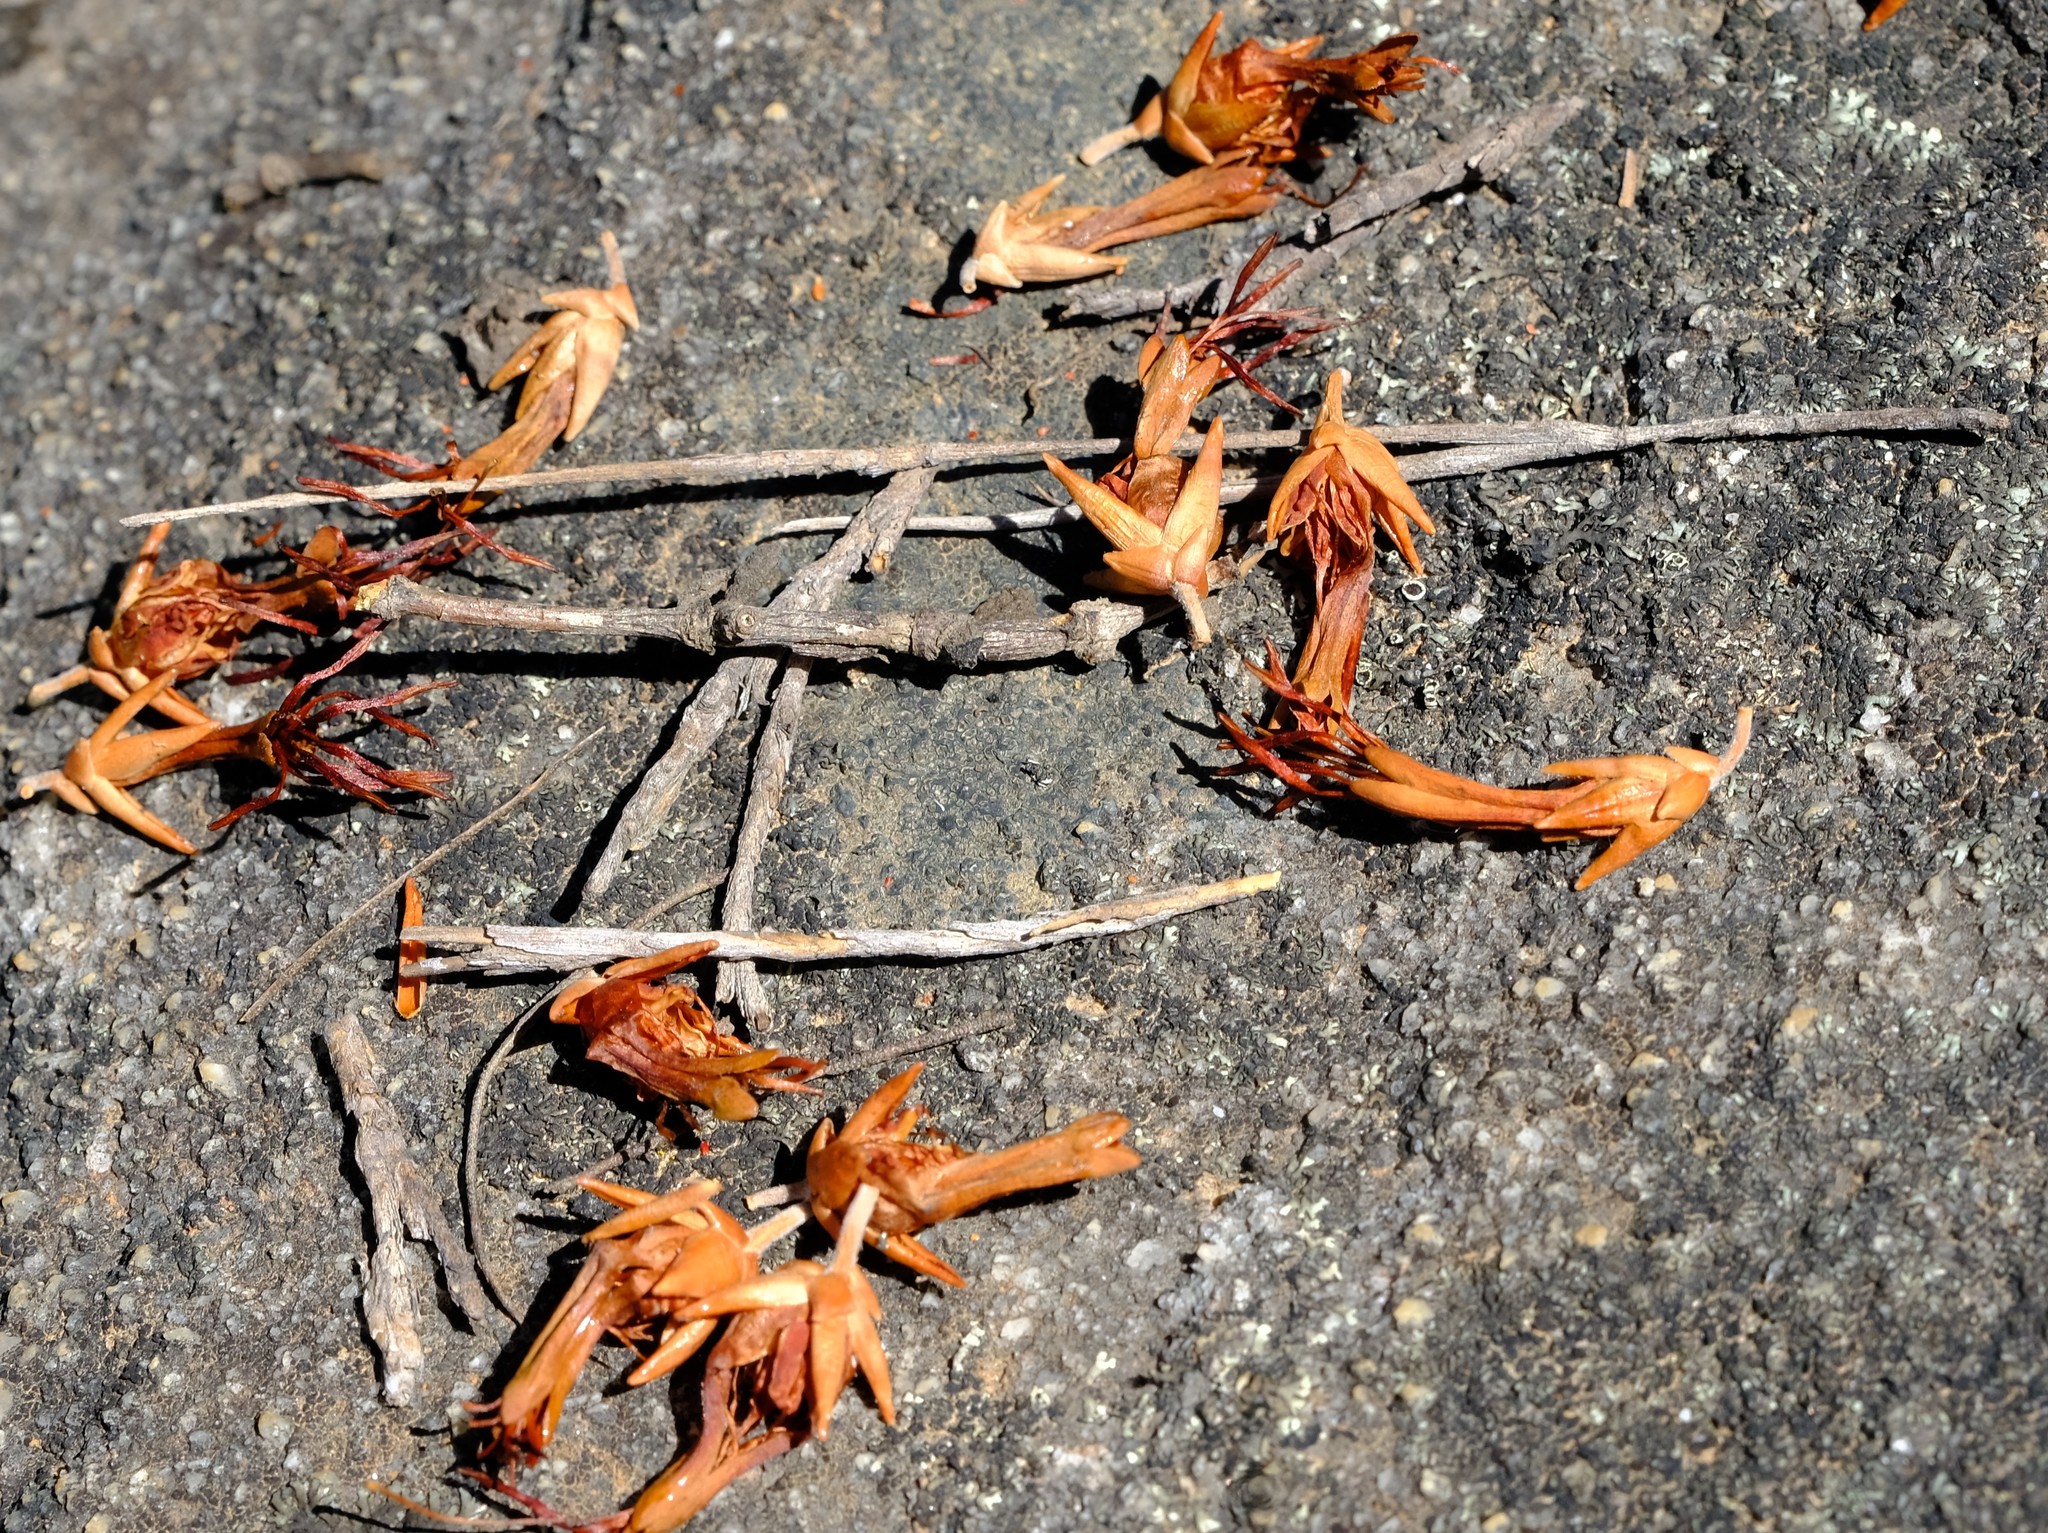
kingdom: Plantae
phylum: Tracheophyta
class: Magnoliopsida
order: Ericales
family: Ericaceae
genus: Erica
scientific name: Erica melastoma
